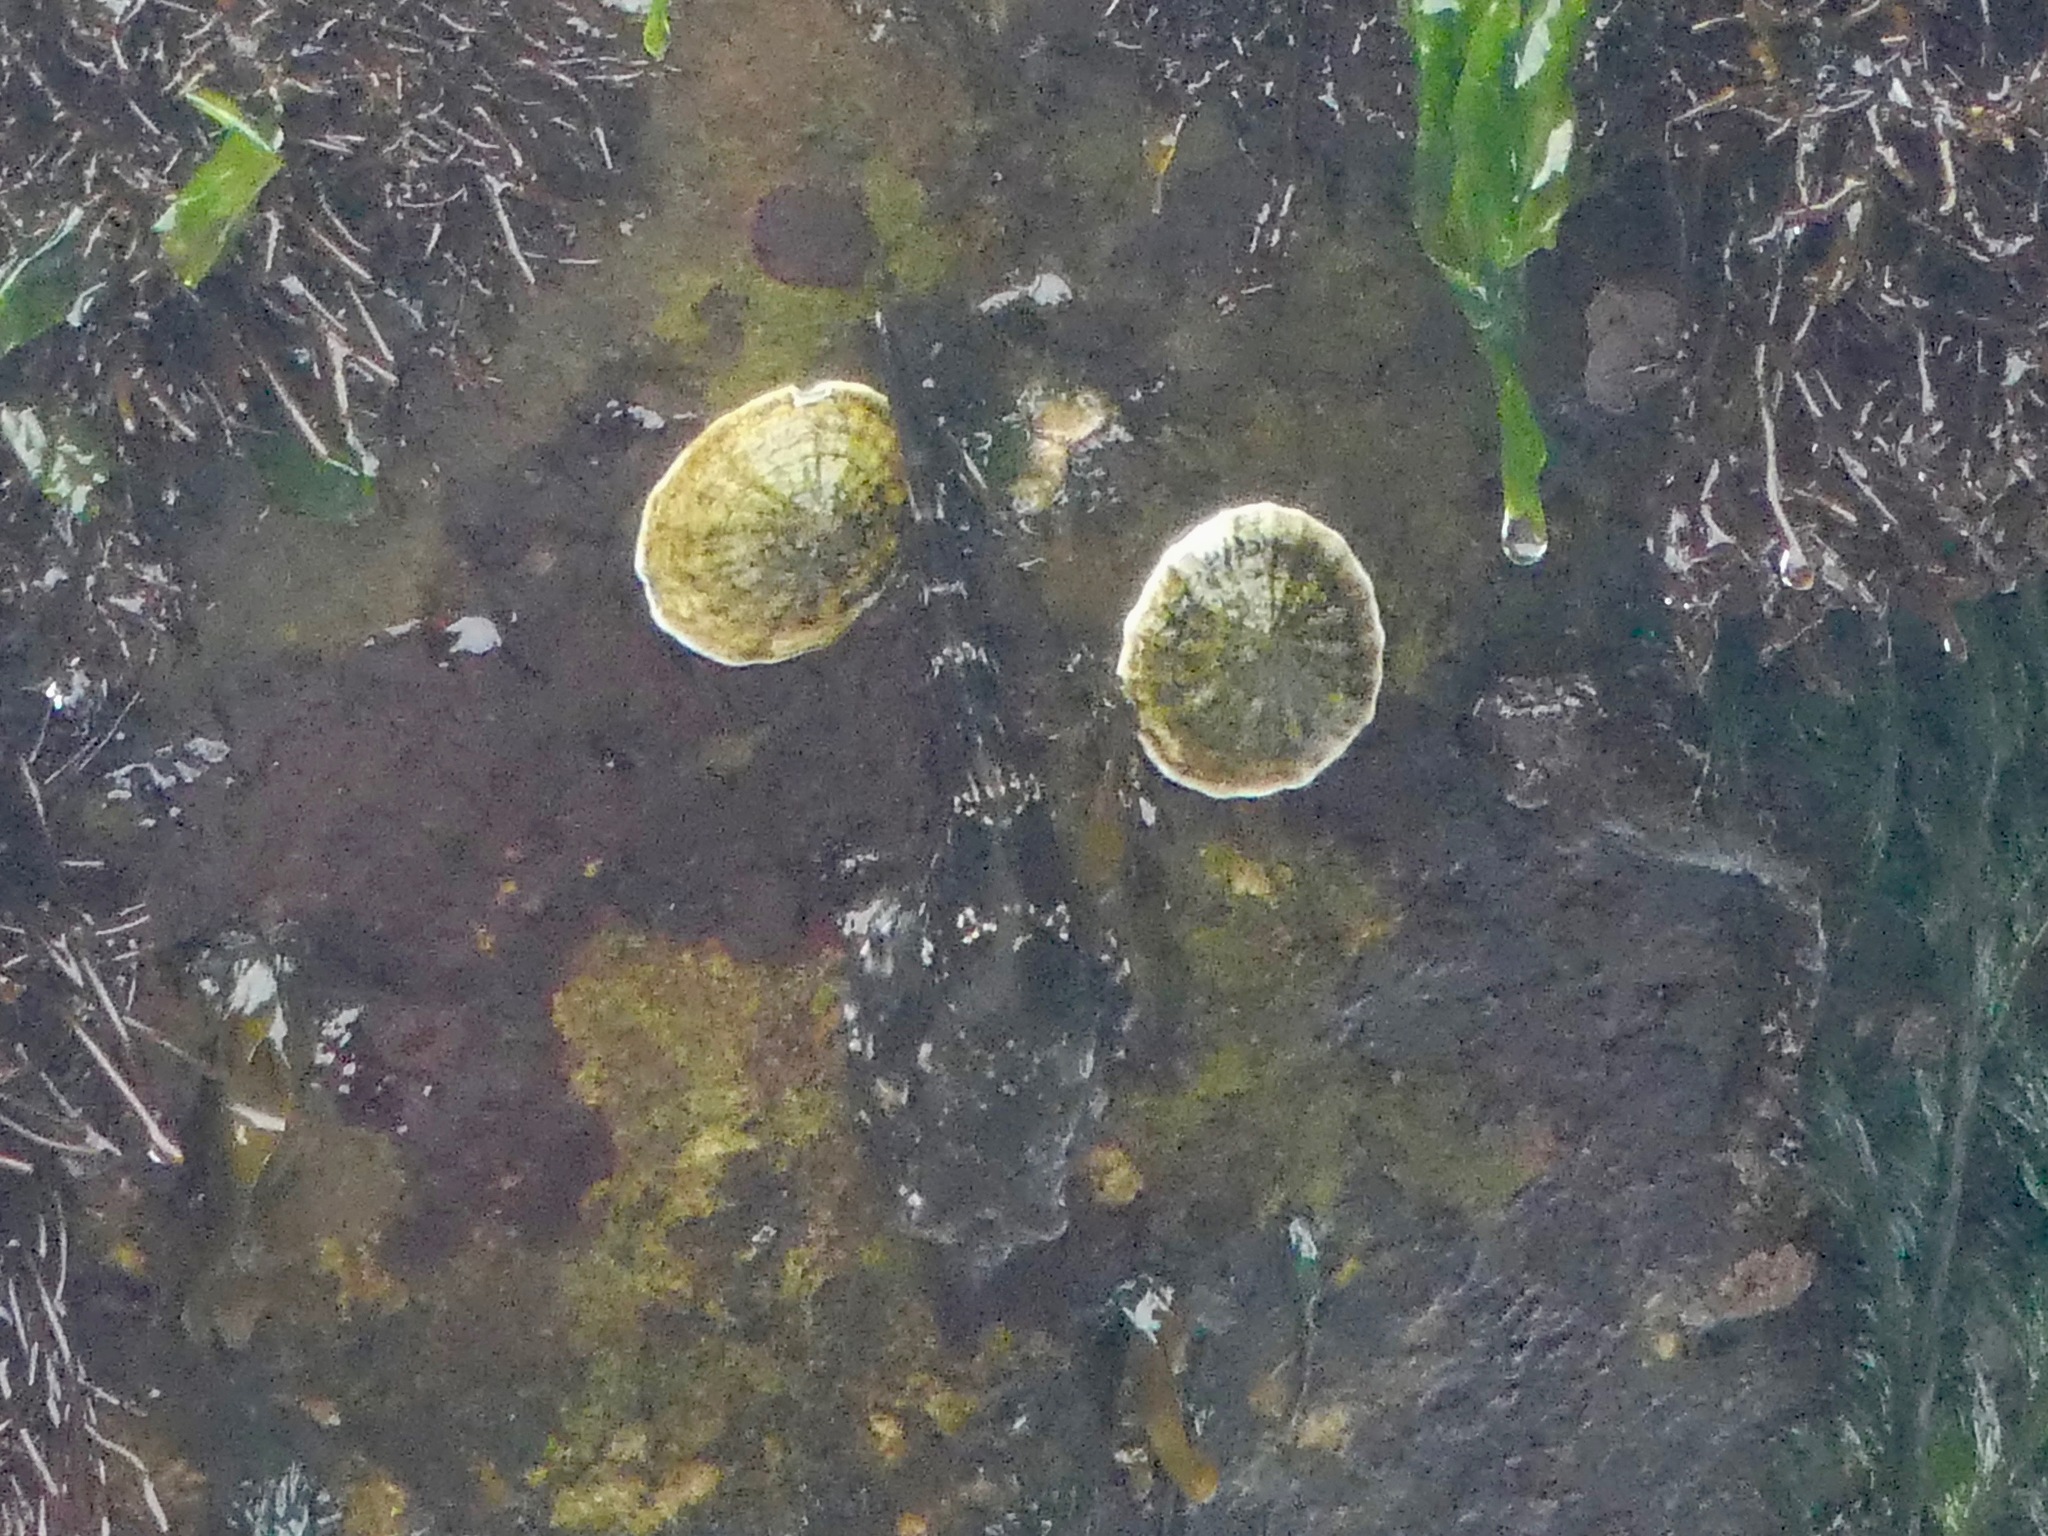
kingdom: Animalia
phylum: Chordata
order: Gobiesociformes
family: Gobiesocidae
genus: Sicyases
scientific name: Sicyases sanguineus
